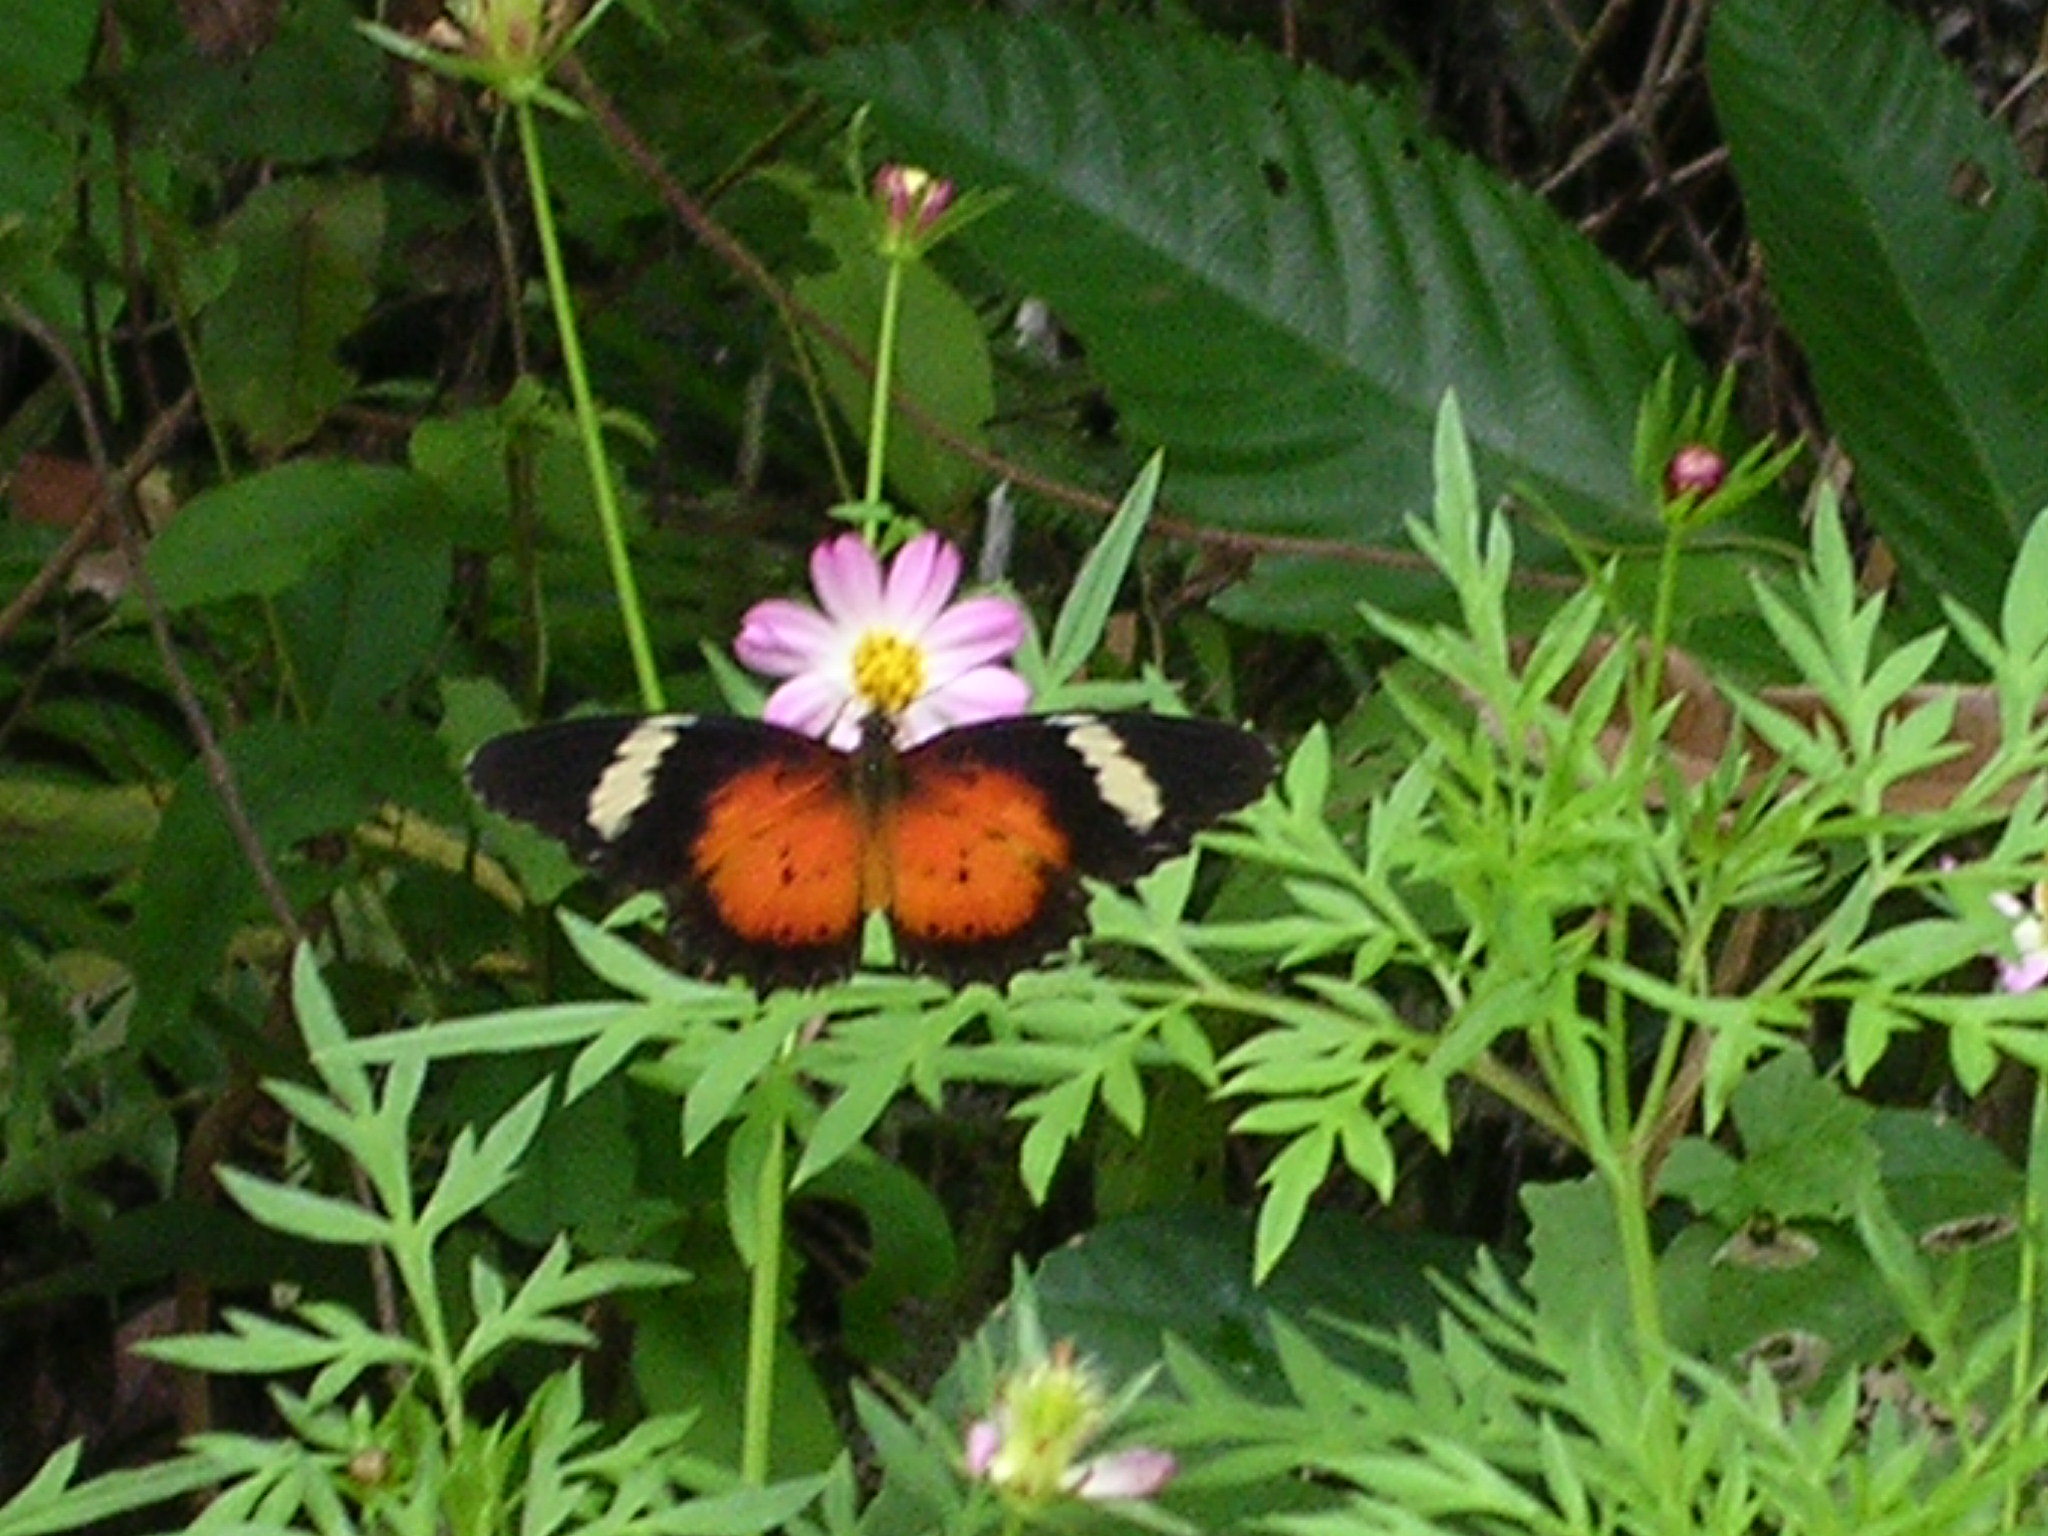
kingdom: Animalia
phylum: Arthropoda
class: Insecta
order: Lepidoptera
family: Nymphalidae
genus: Cethosia
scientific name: Cethosia hypsea
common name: Malayan lacewing butterfly
